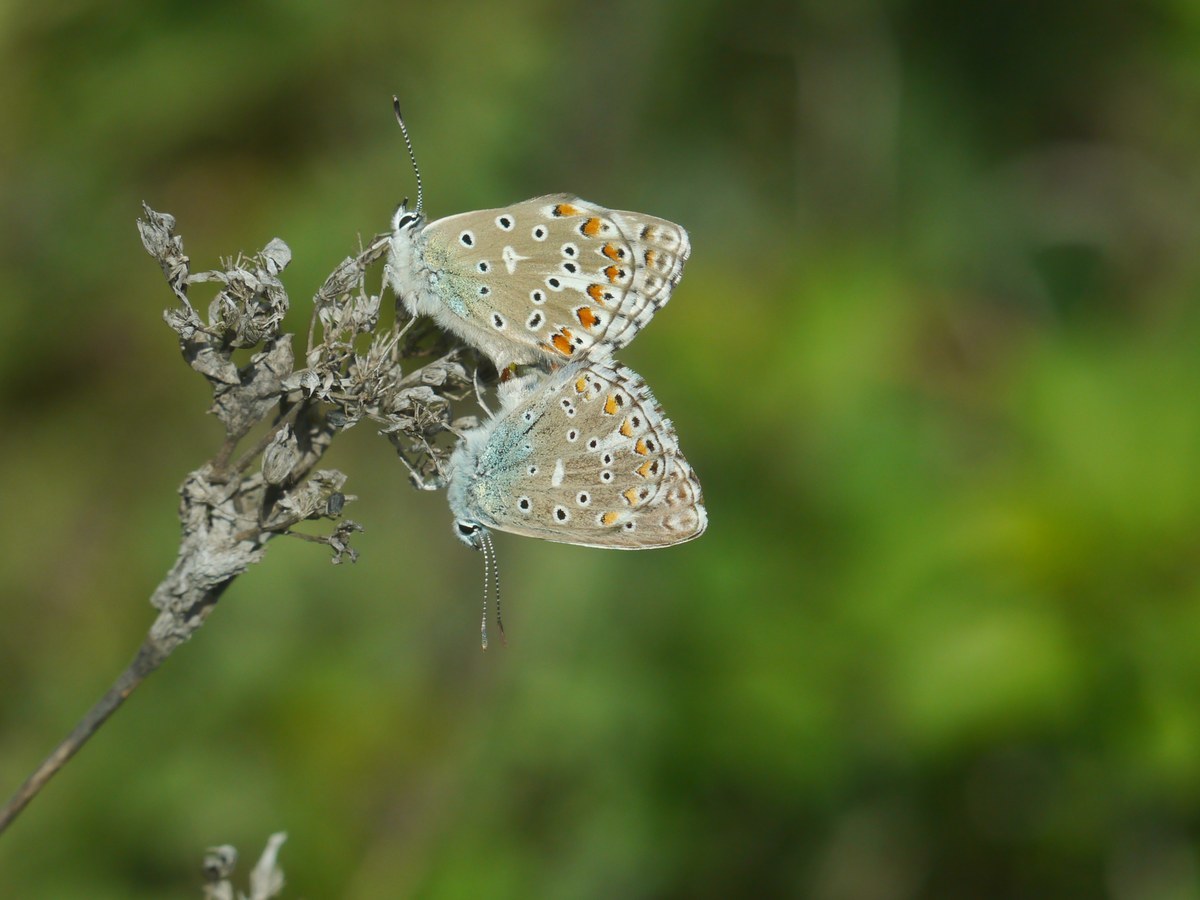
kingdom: Animalia
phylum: Arthropoda
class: Insecta
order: Lepidoptera
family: Lycaenidae
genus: Lysandra
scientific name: Lysandra bellargus
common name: Adonis blue
